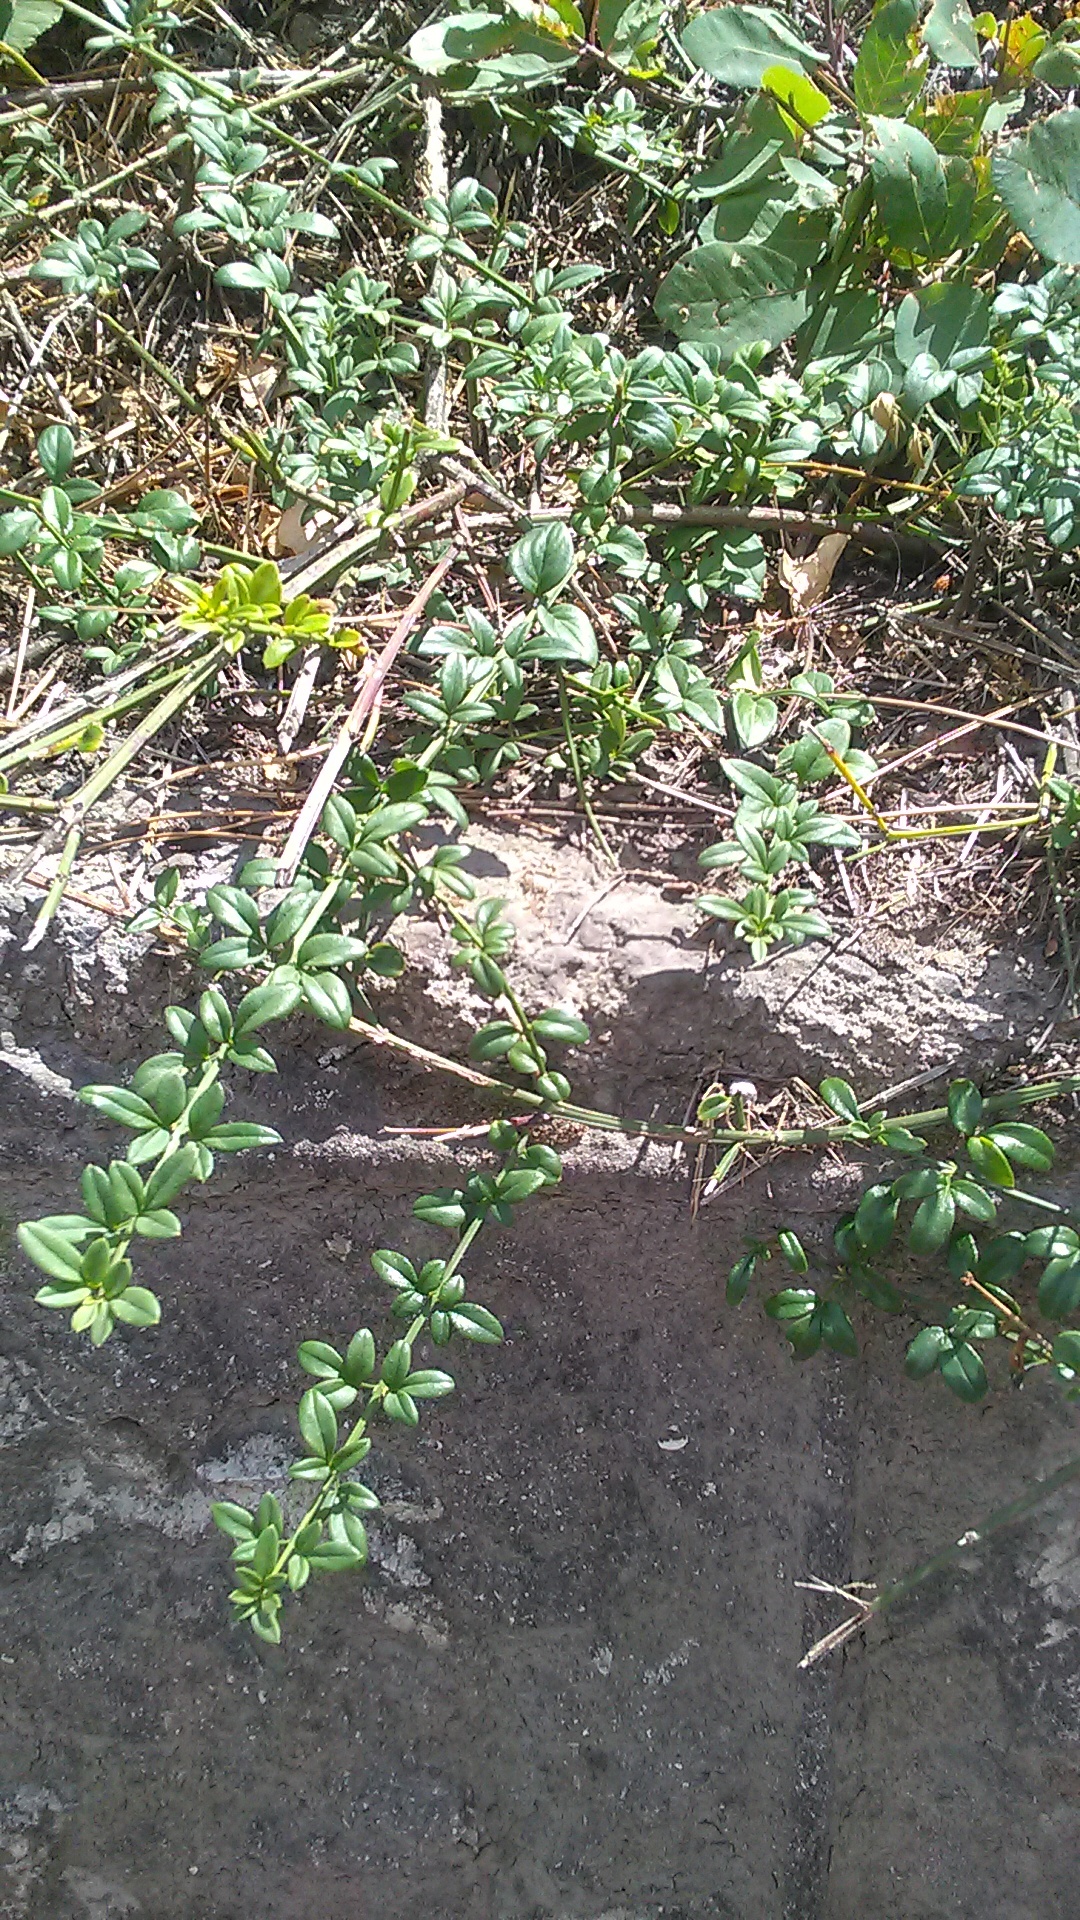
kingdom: Plantae
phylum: Tracheophyta
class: Magnoliopsida
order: Lamiales
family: Oleaceae
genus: Jasminum
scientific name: Jasminum nudiflorum
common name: Winter jasmine
